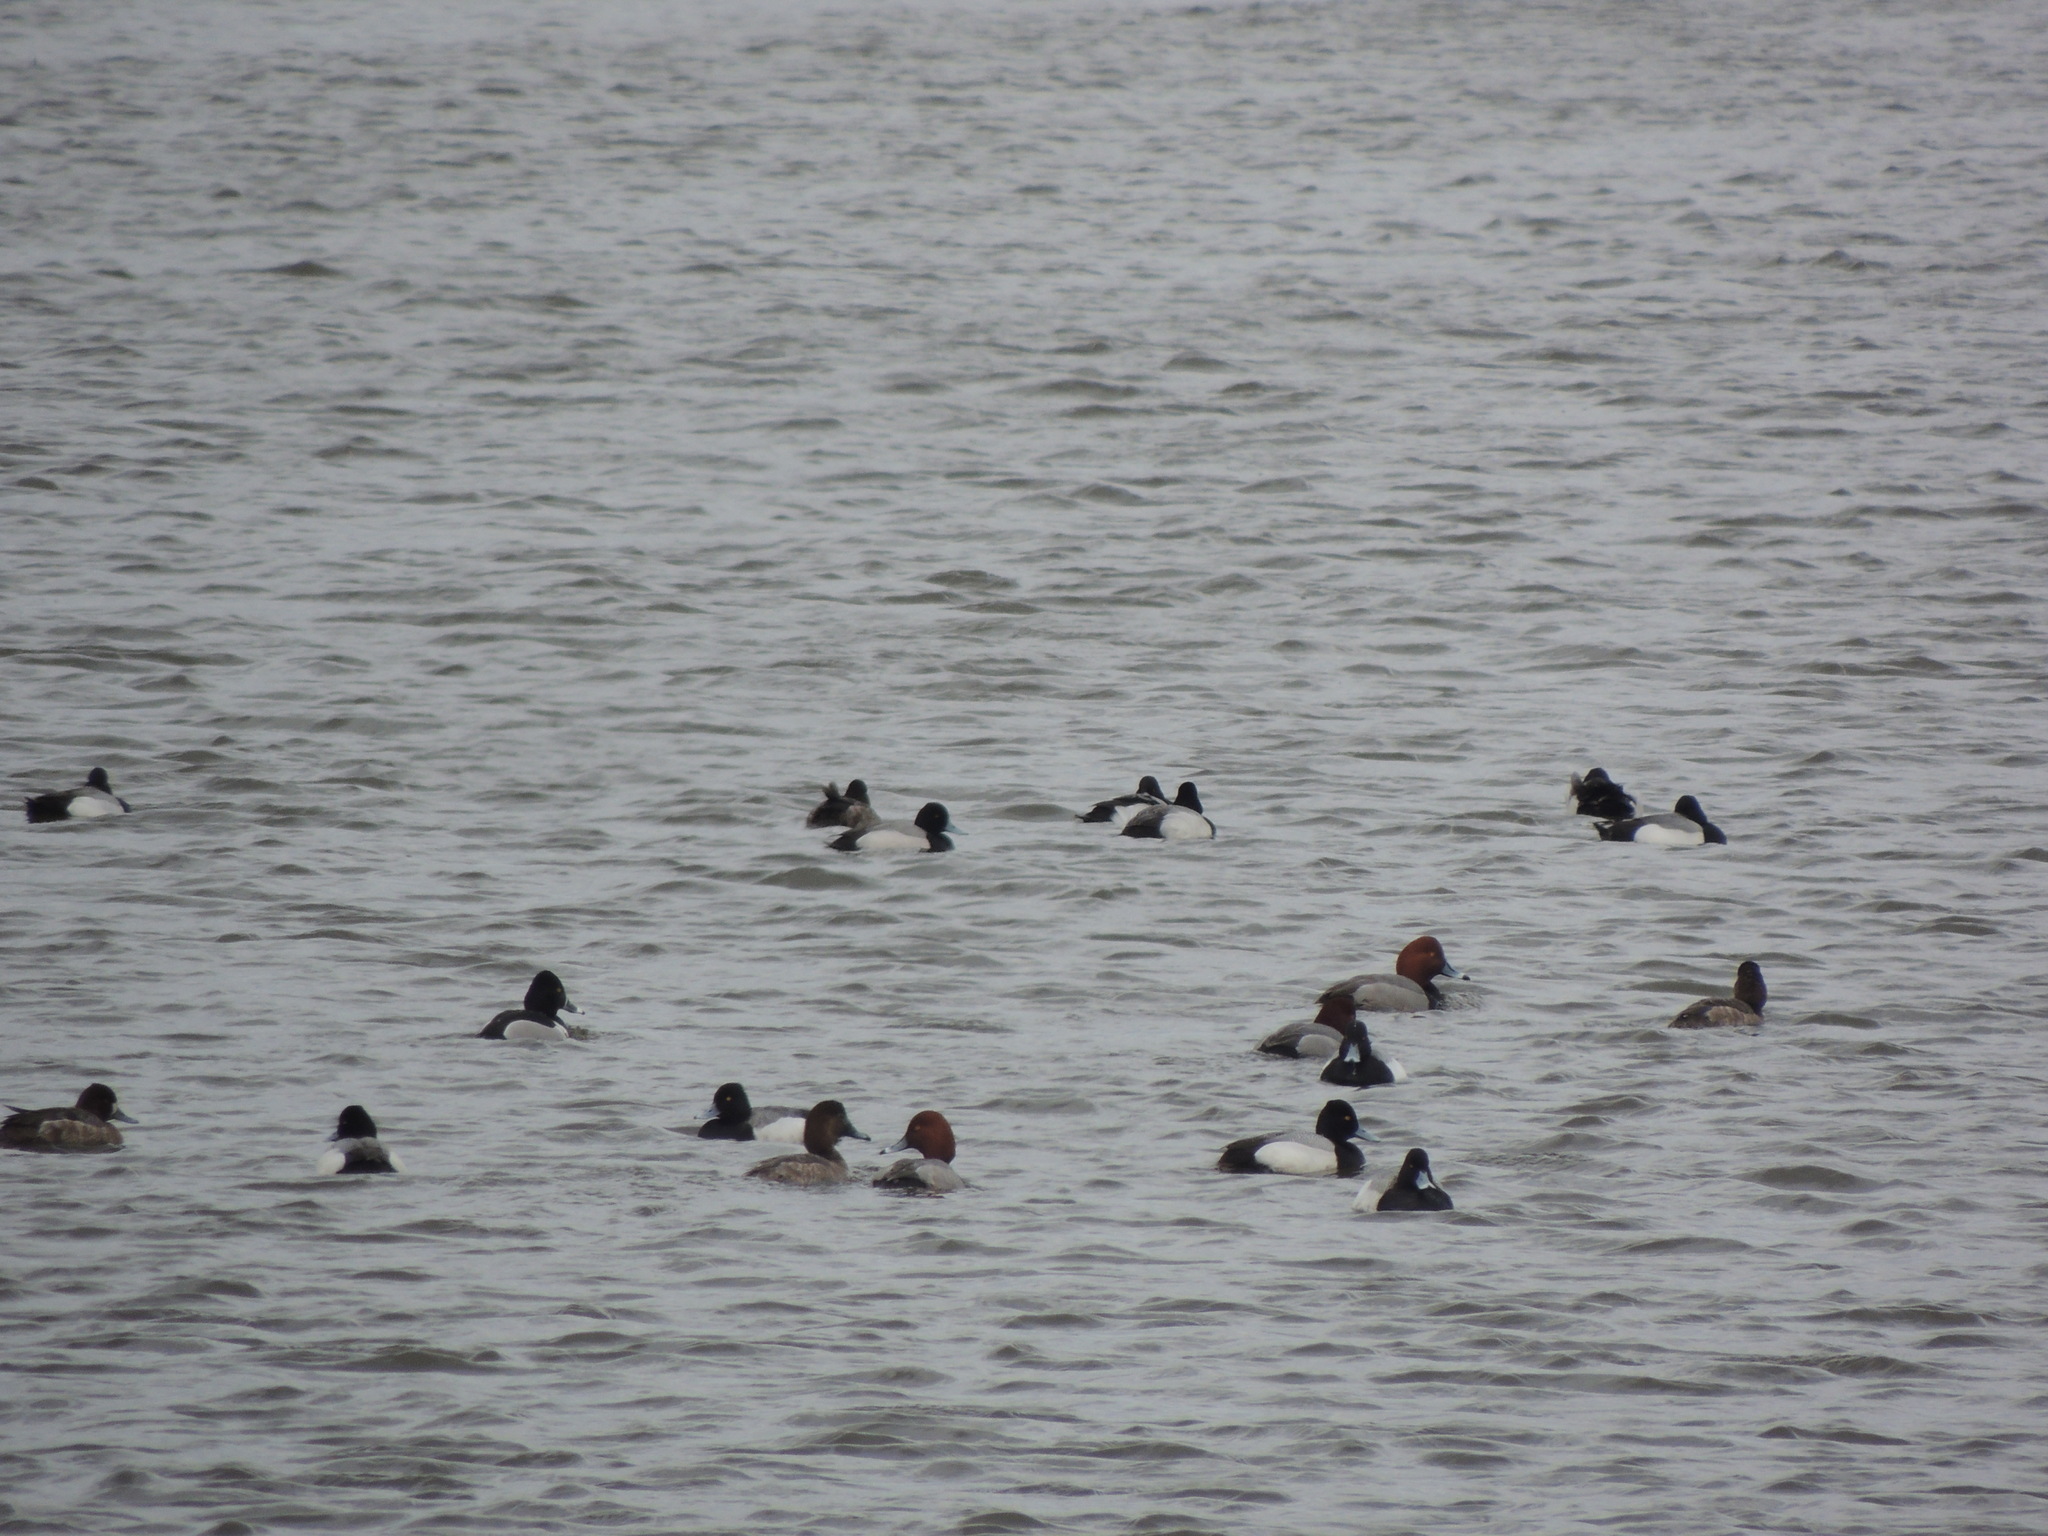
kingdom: Animalia
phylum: Chordata
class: Aves
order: Anseriformes
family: Anatidae
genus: Aythya
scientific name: Aythya affinis
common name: Lesser scaup
